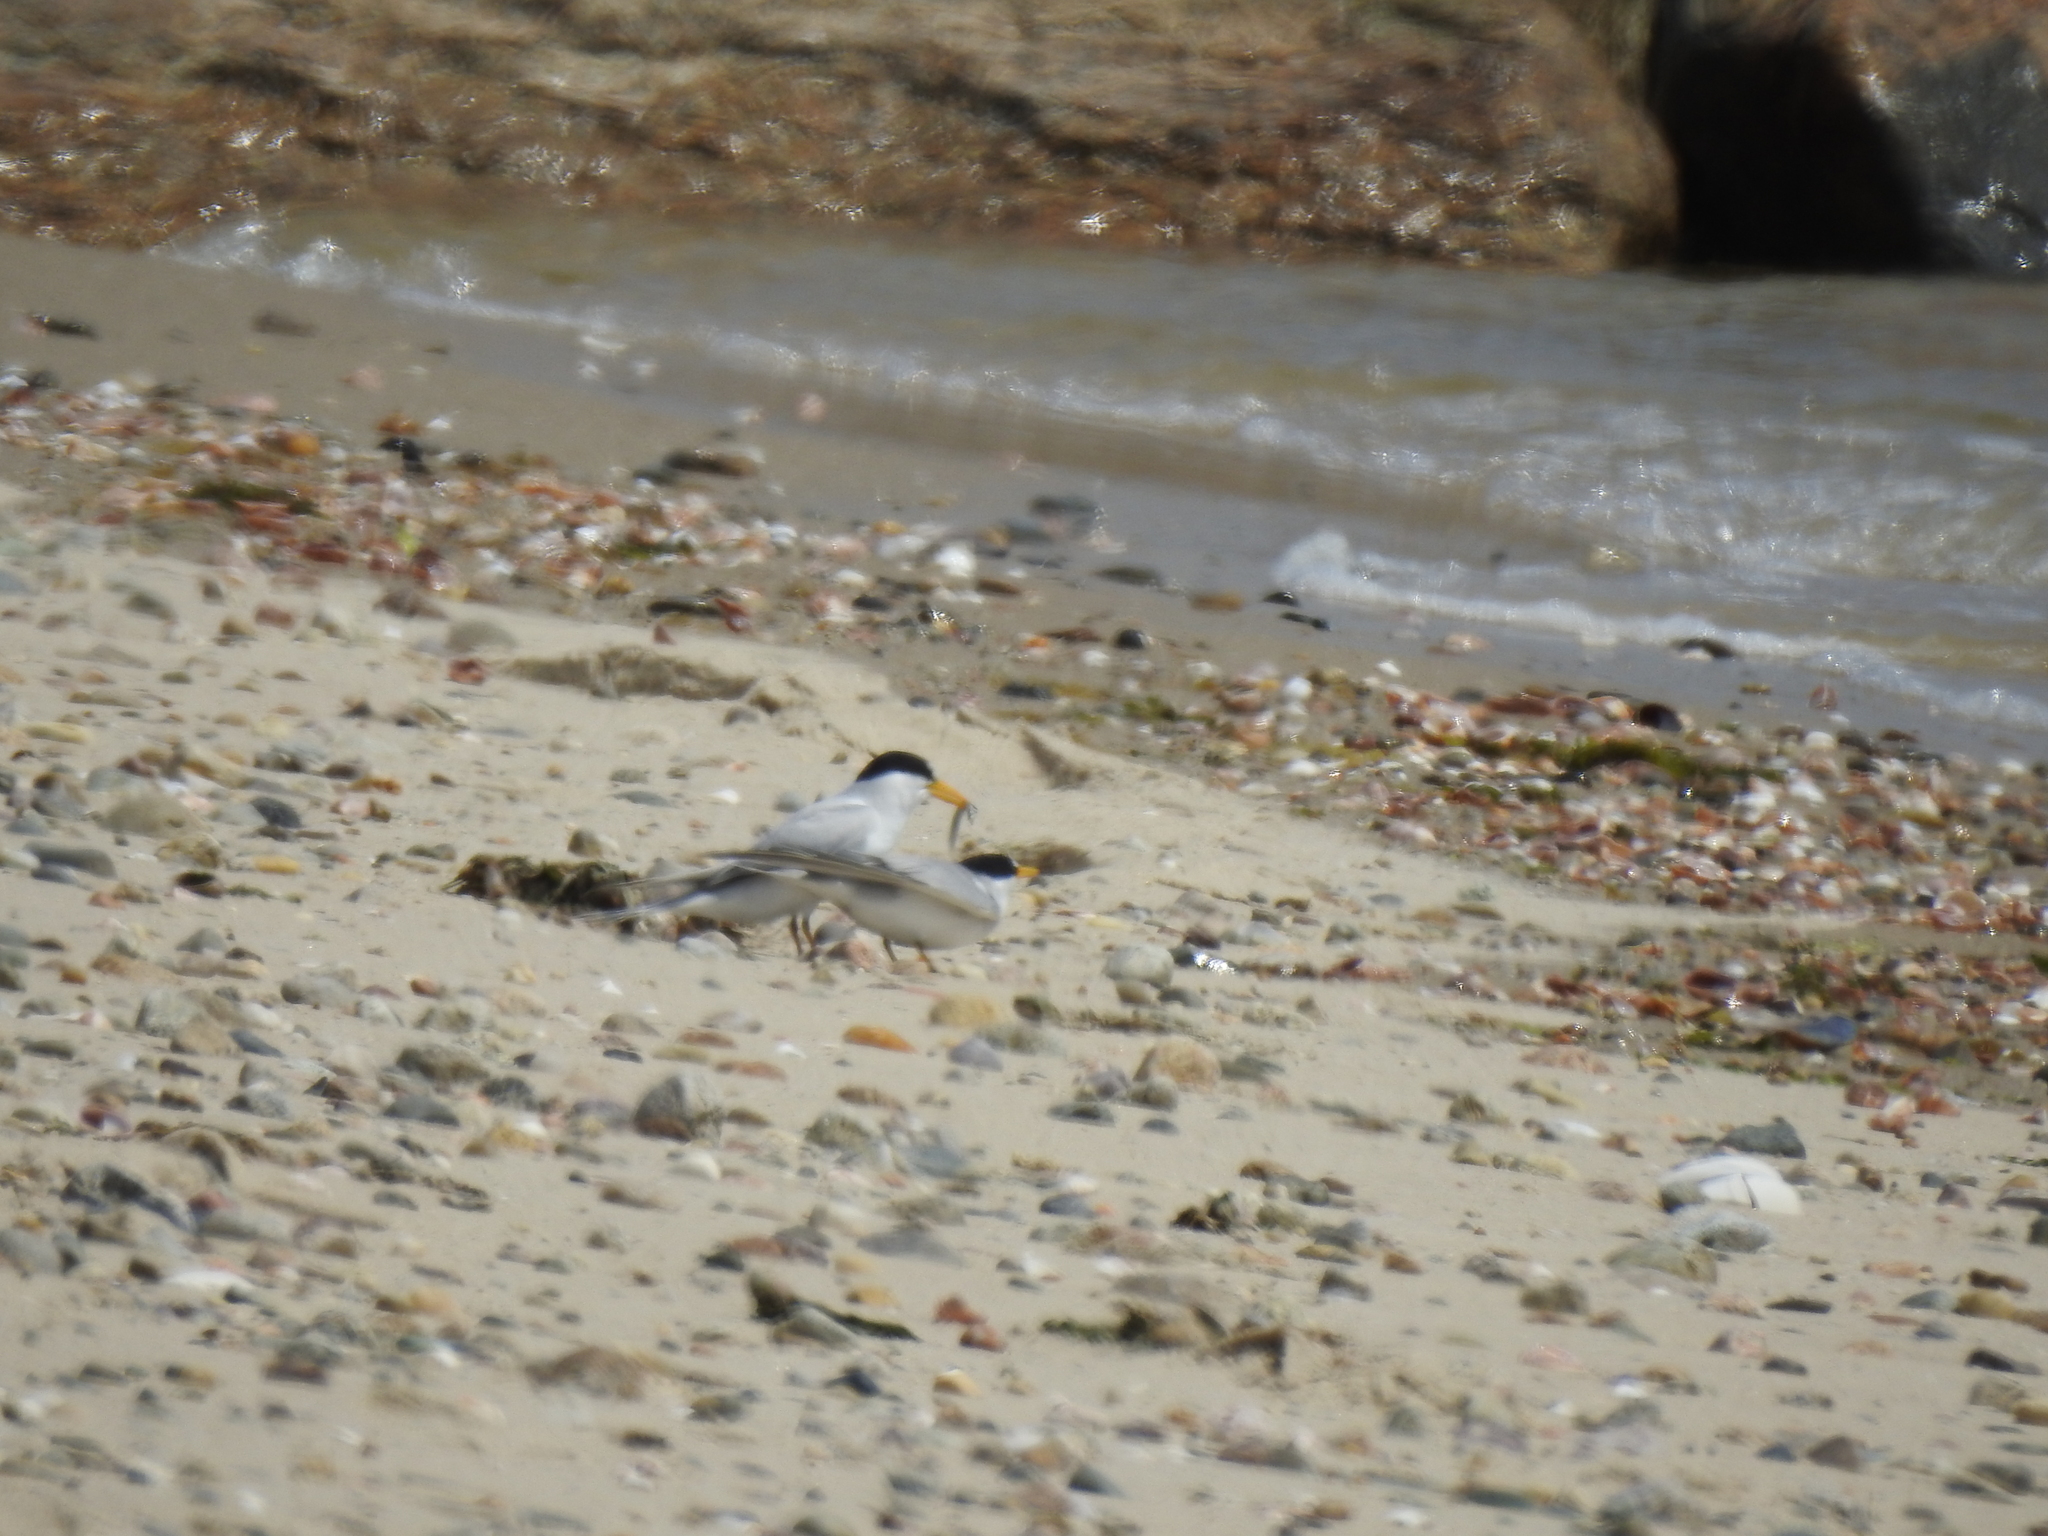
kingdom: Animalia
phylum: Chordata
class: Aves
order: Charadriiformes
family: Laridae
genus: Sternula
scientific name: Sternula antillarum
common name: Least tern
